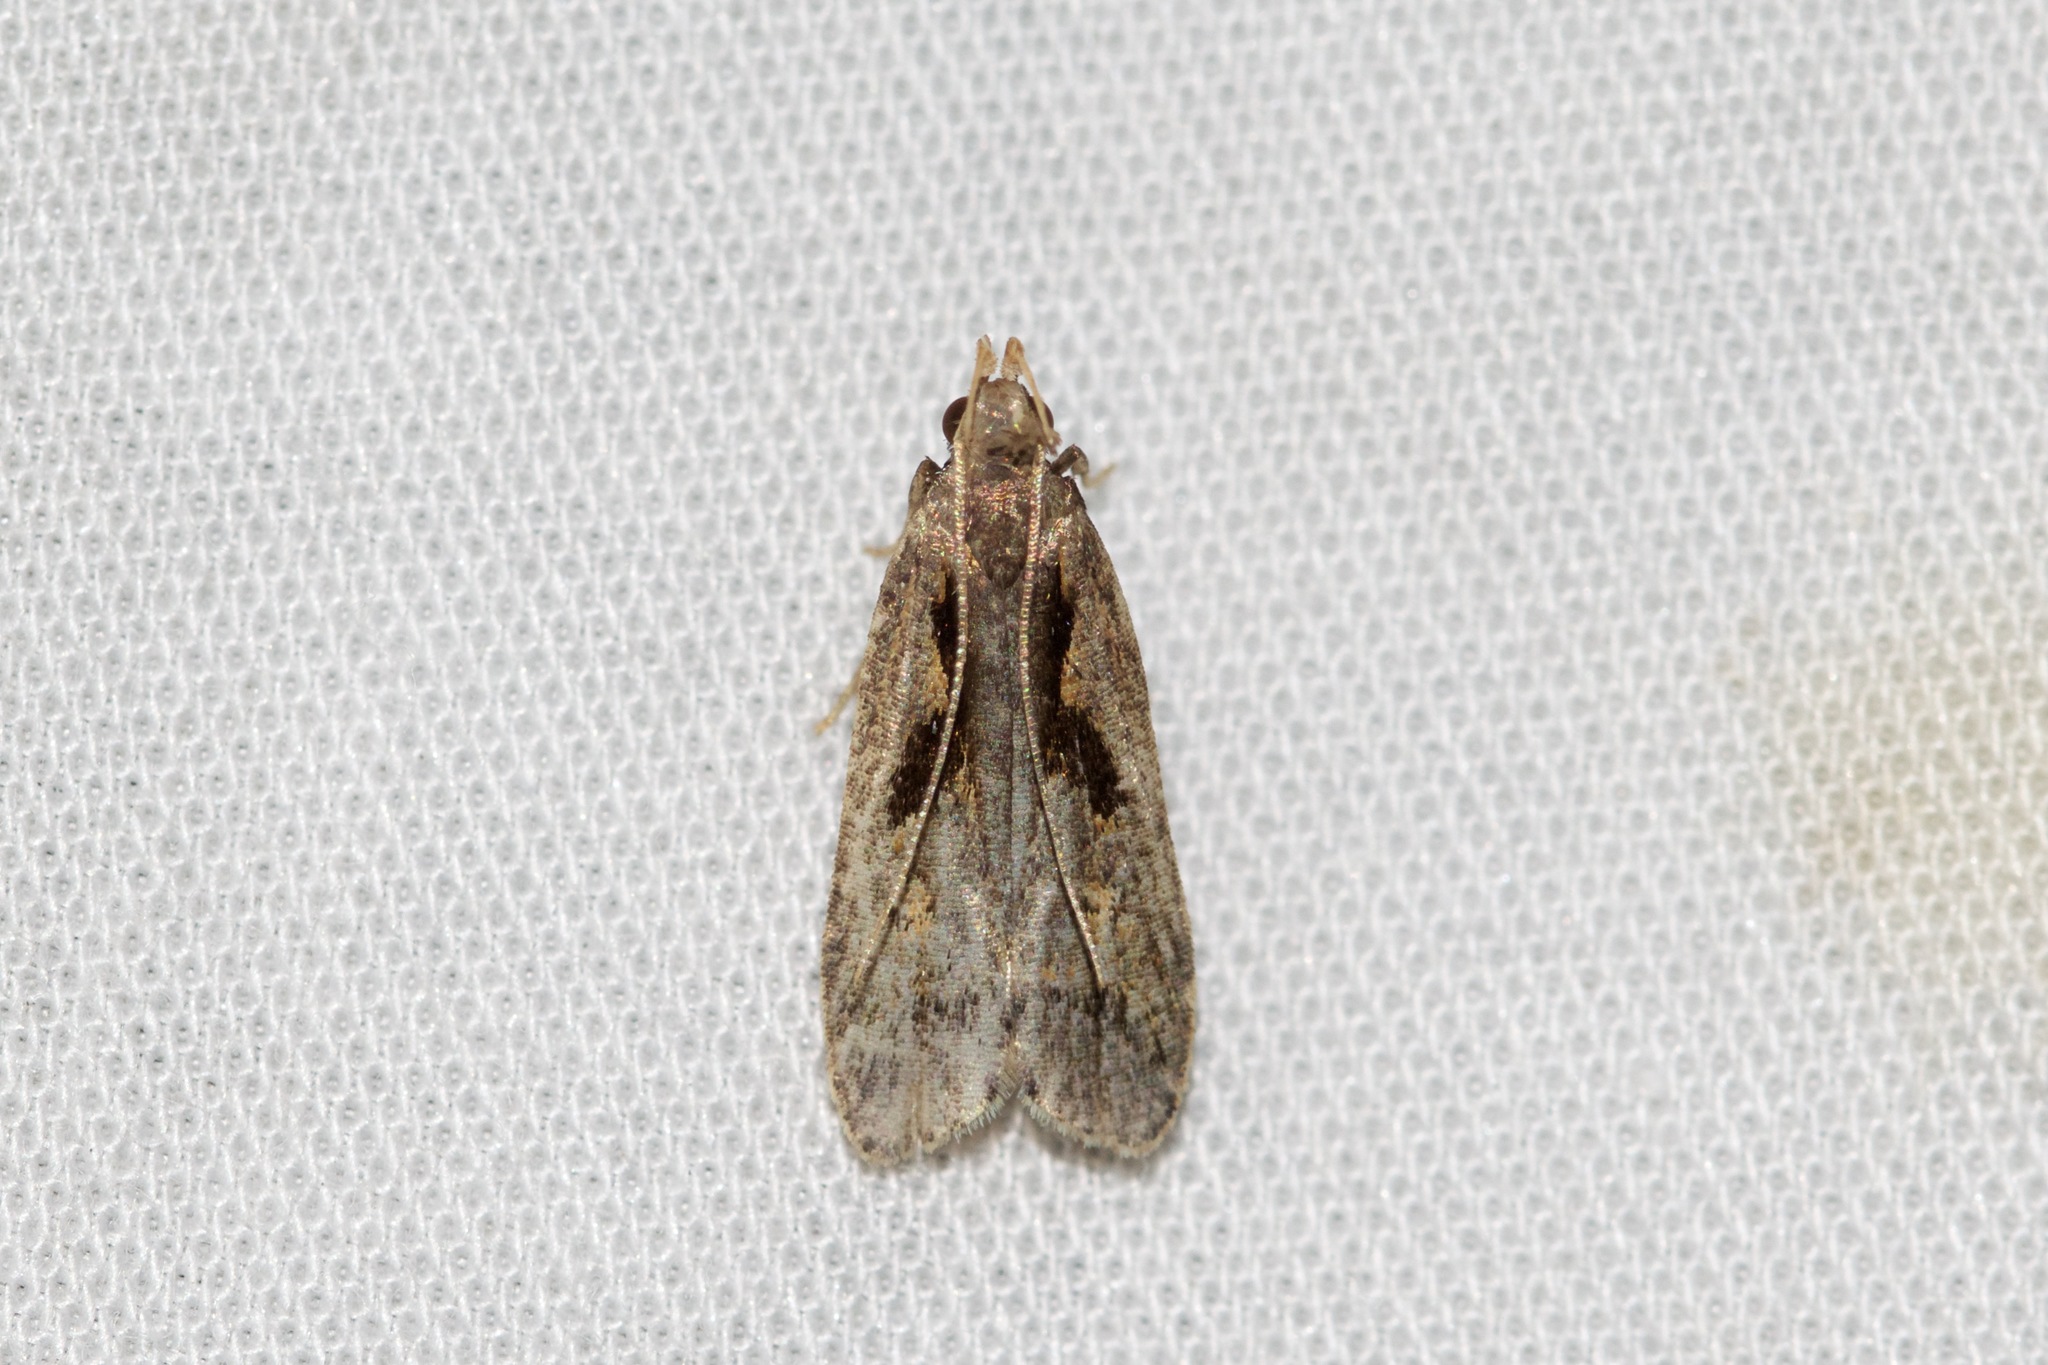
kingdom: Animalia
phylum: Arthropoda
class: Insecta
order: Lepidoptera
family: Gelechiidae
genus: Dichomeris
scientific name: Dichomeris bilobella
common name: Bilobed dichomeris moth
